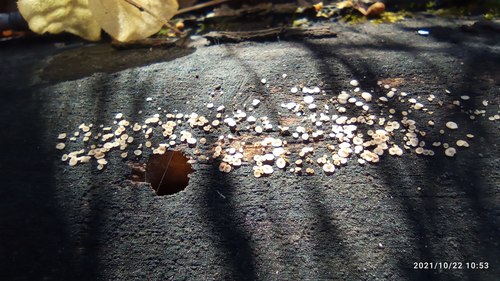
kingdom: Fungi
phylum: Ascomycota
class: Leotiomycetes
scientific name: Leotiomycetes
